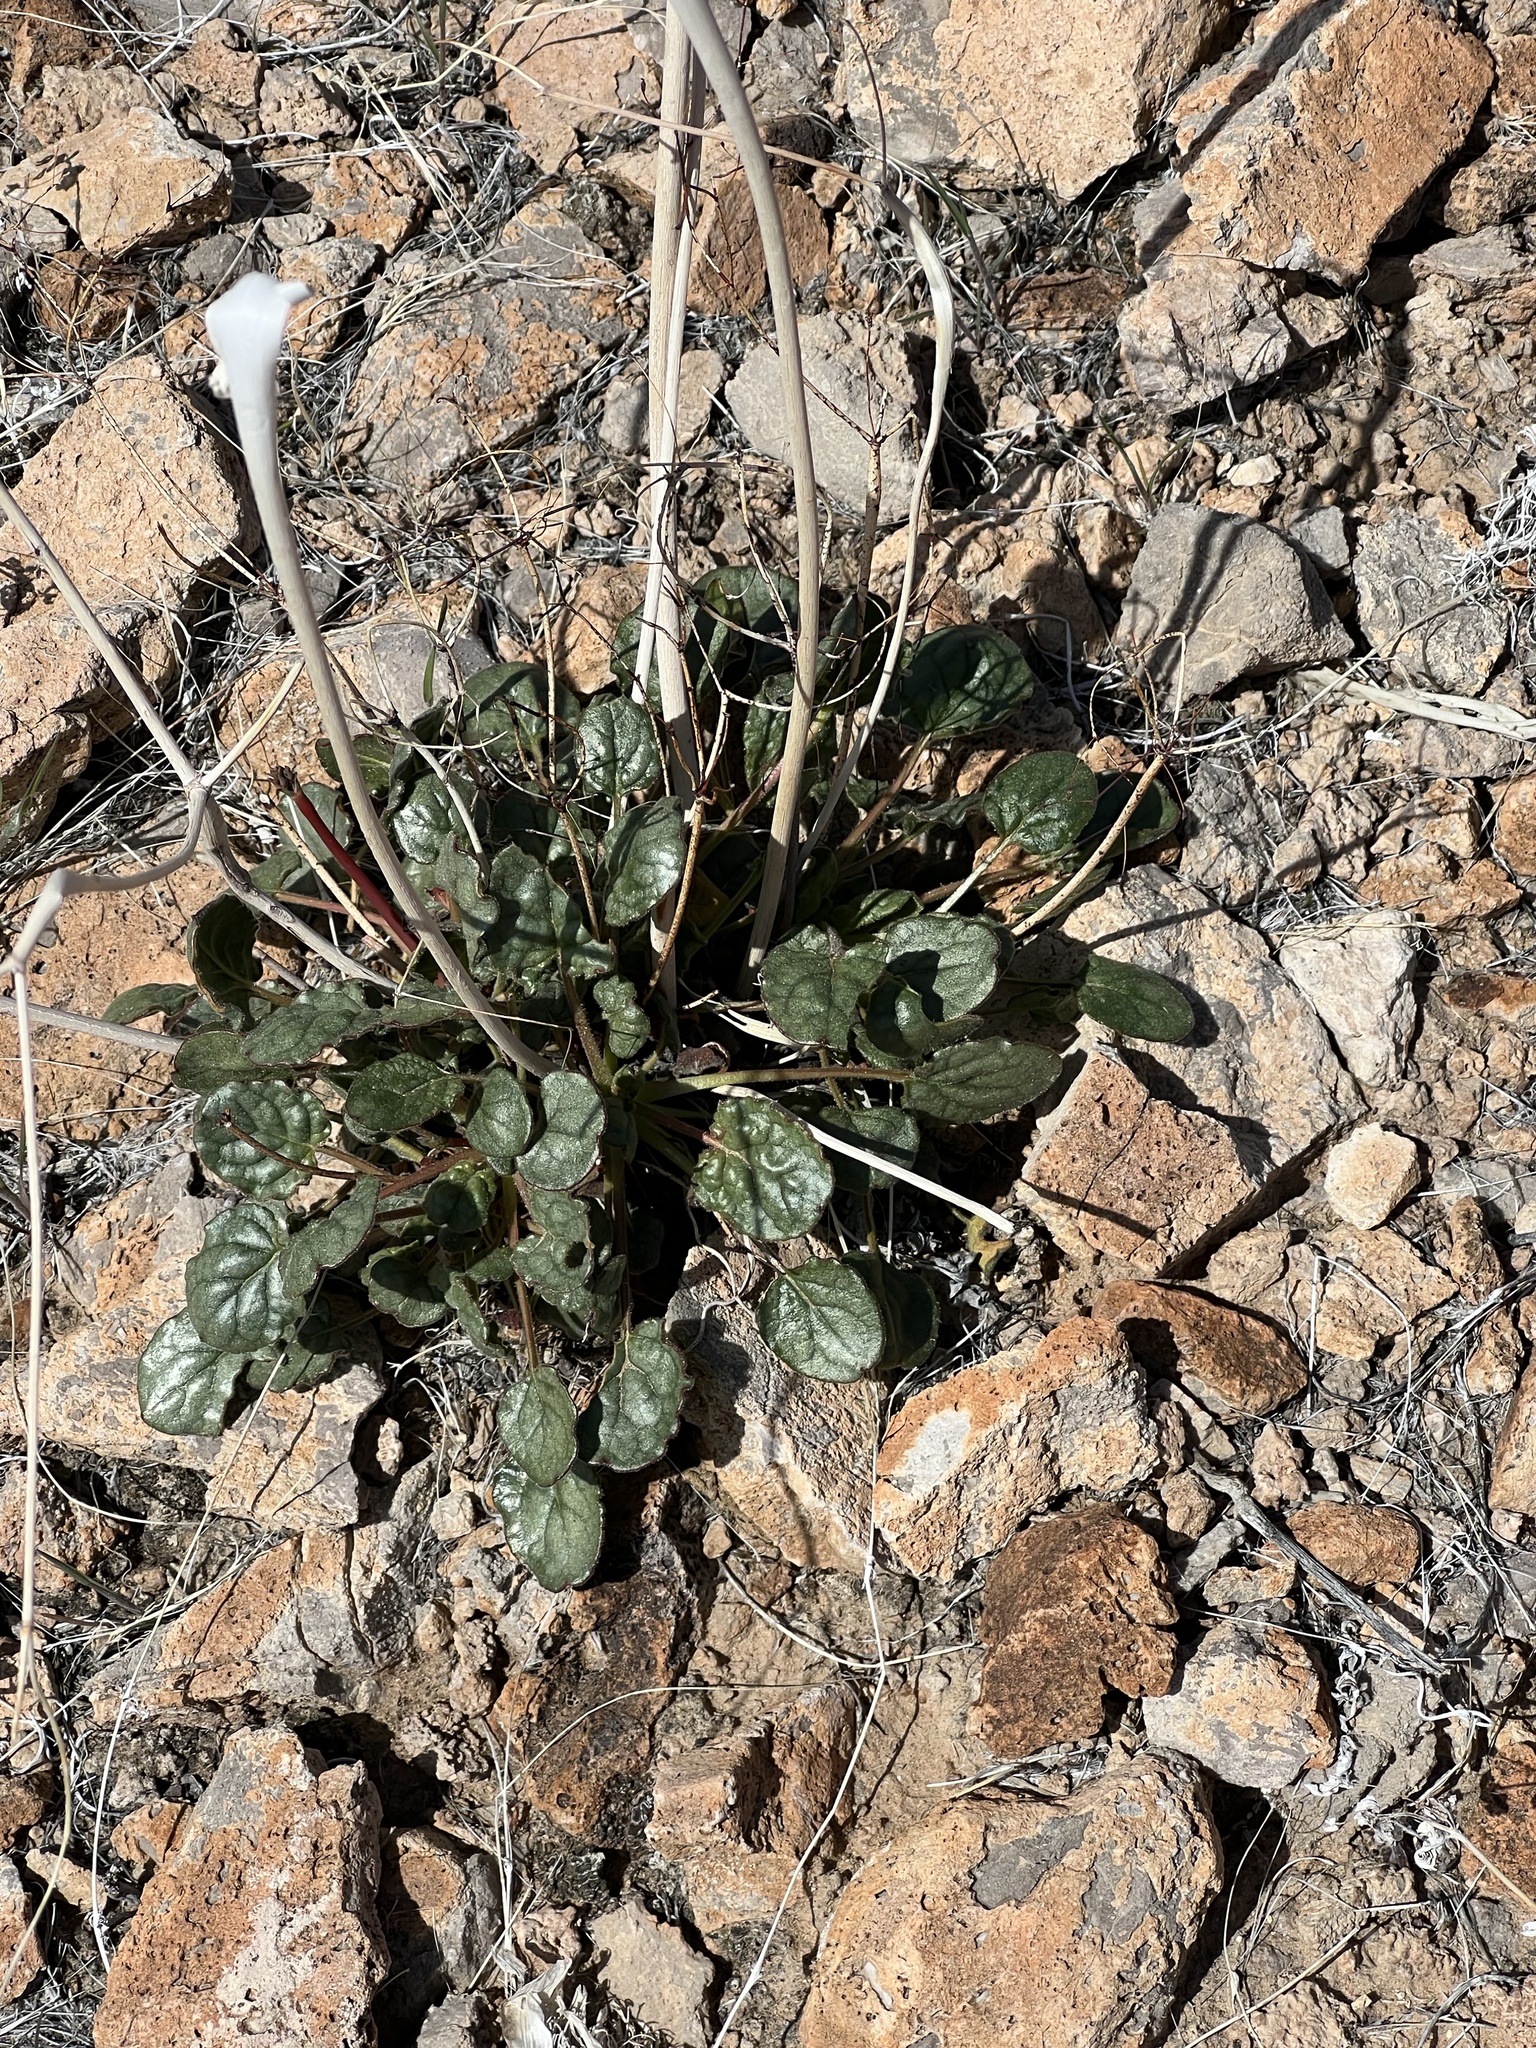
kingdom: Plantae
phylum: Tracheophyta
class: Magnoliopsida
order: Caryophyllales
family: Polygonaceae
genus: Eriogonum
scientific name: Eriogonum inflatum
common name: Desert trumpet
